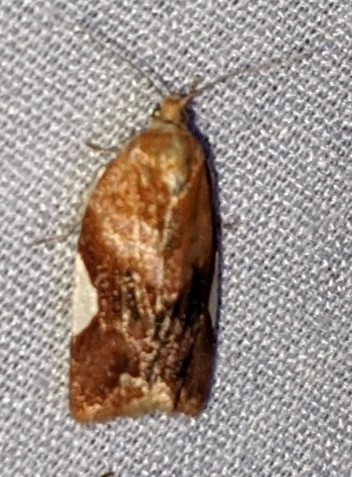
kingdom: Animalia
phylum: Arthropoda
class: Insecta
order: Lepidoptera
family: Tortricidae
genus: Clepsis
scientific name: Clepsis persicana
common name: White triangle tortrix
